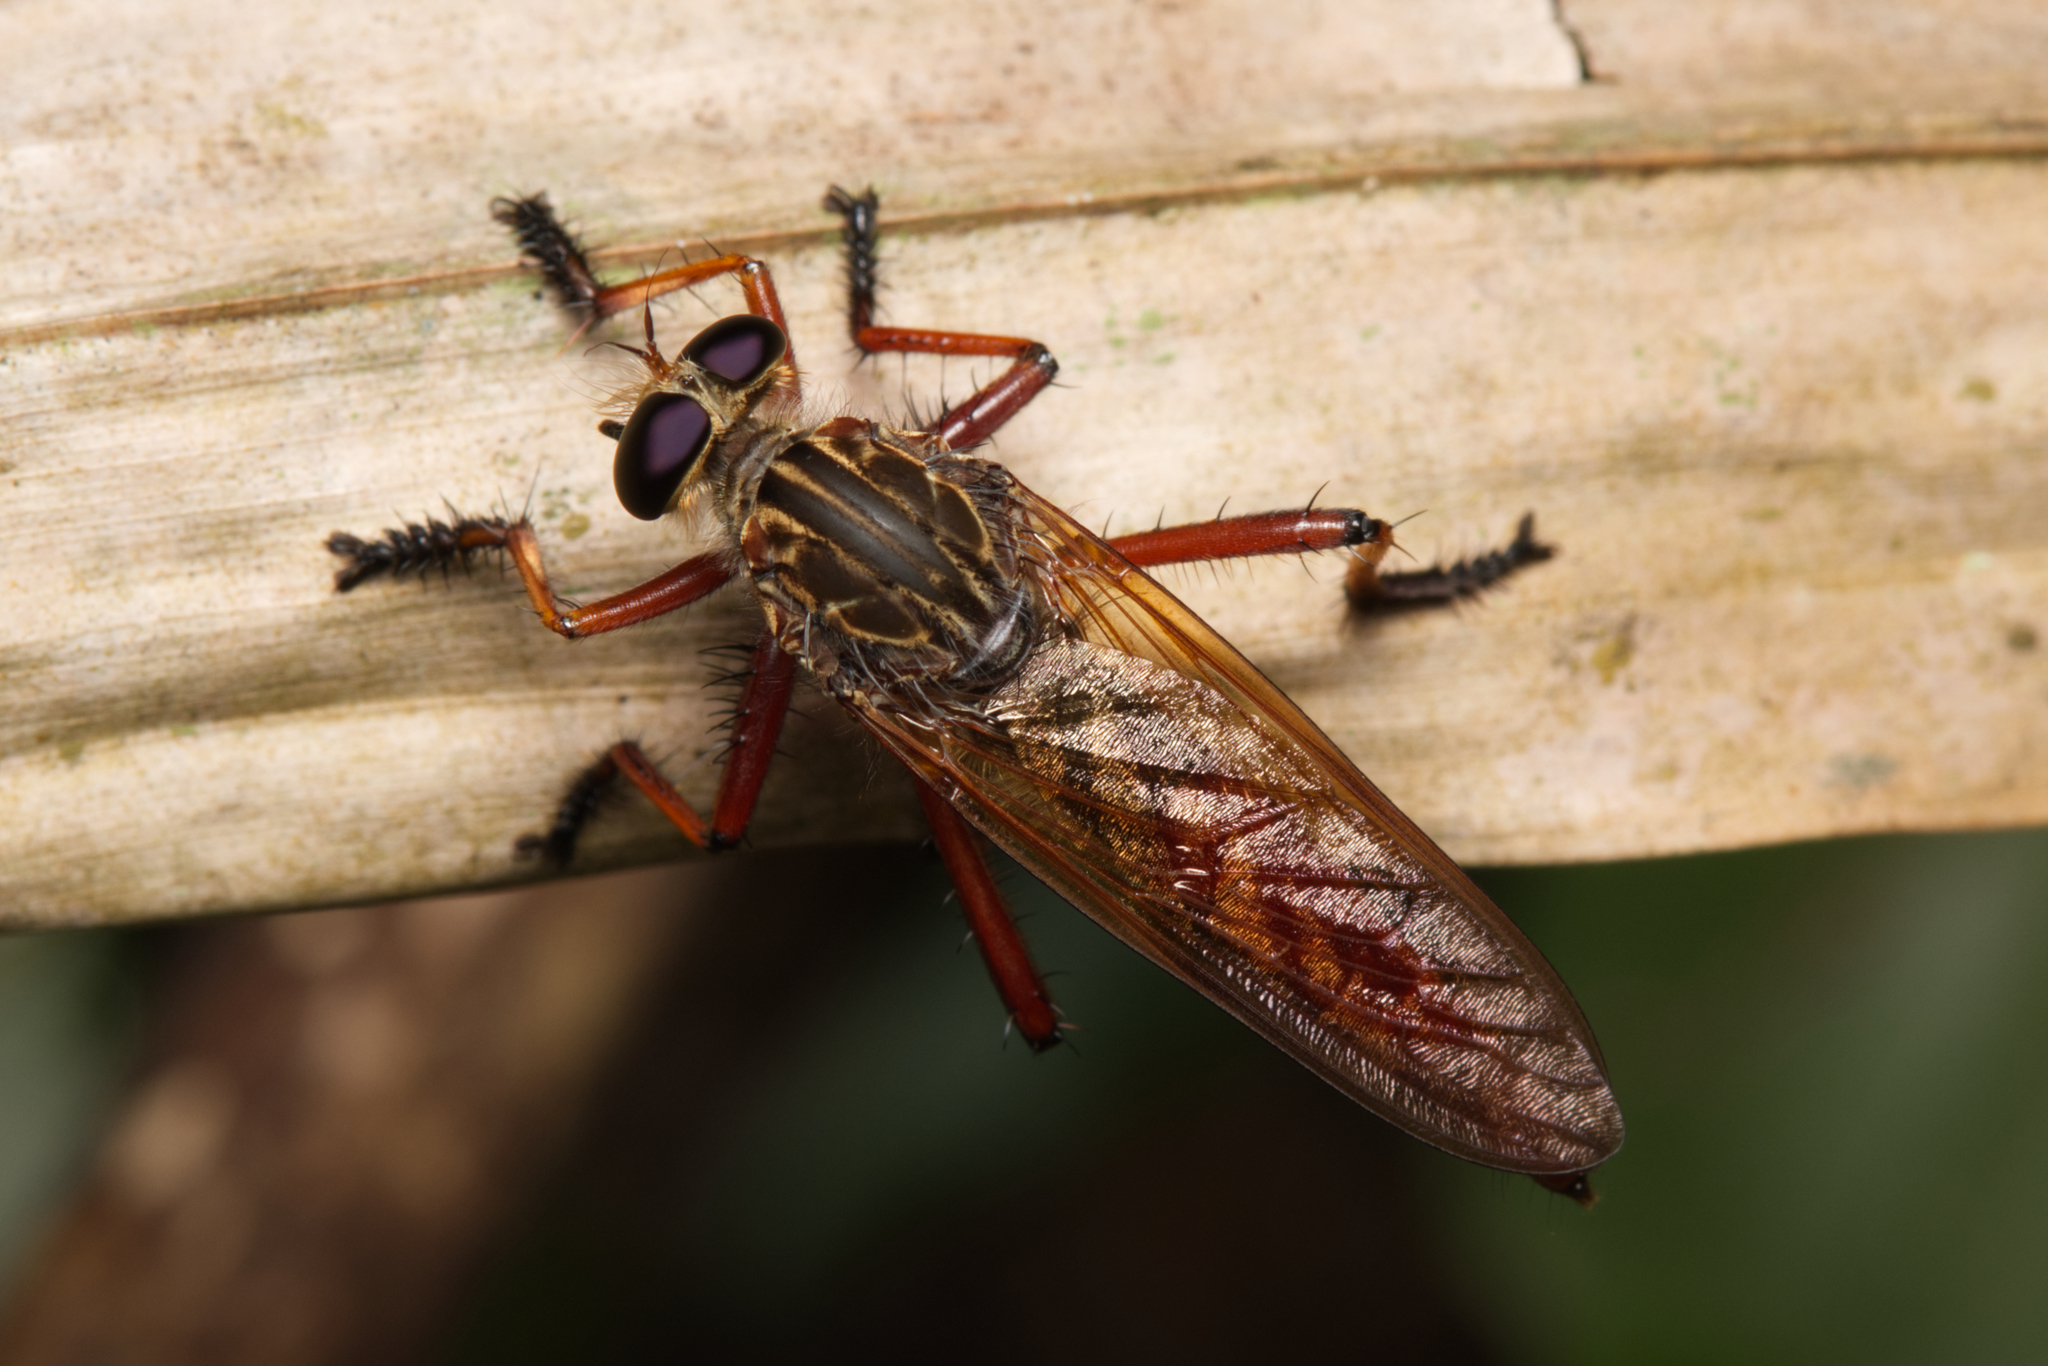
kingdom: Animalia
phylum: Arthropoda
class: Insecta
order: Diptera
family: Asilidae
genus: Colepia
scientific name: Colepia cultripes
